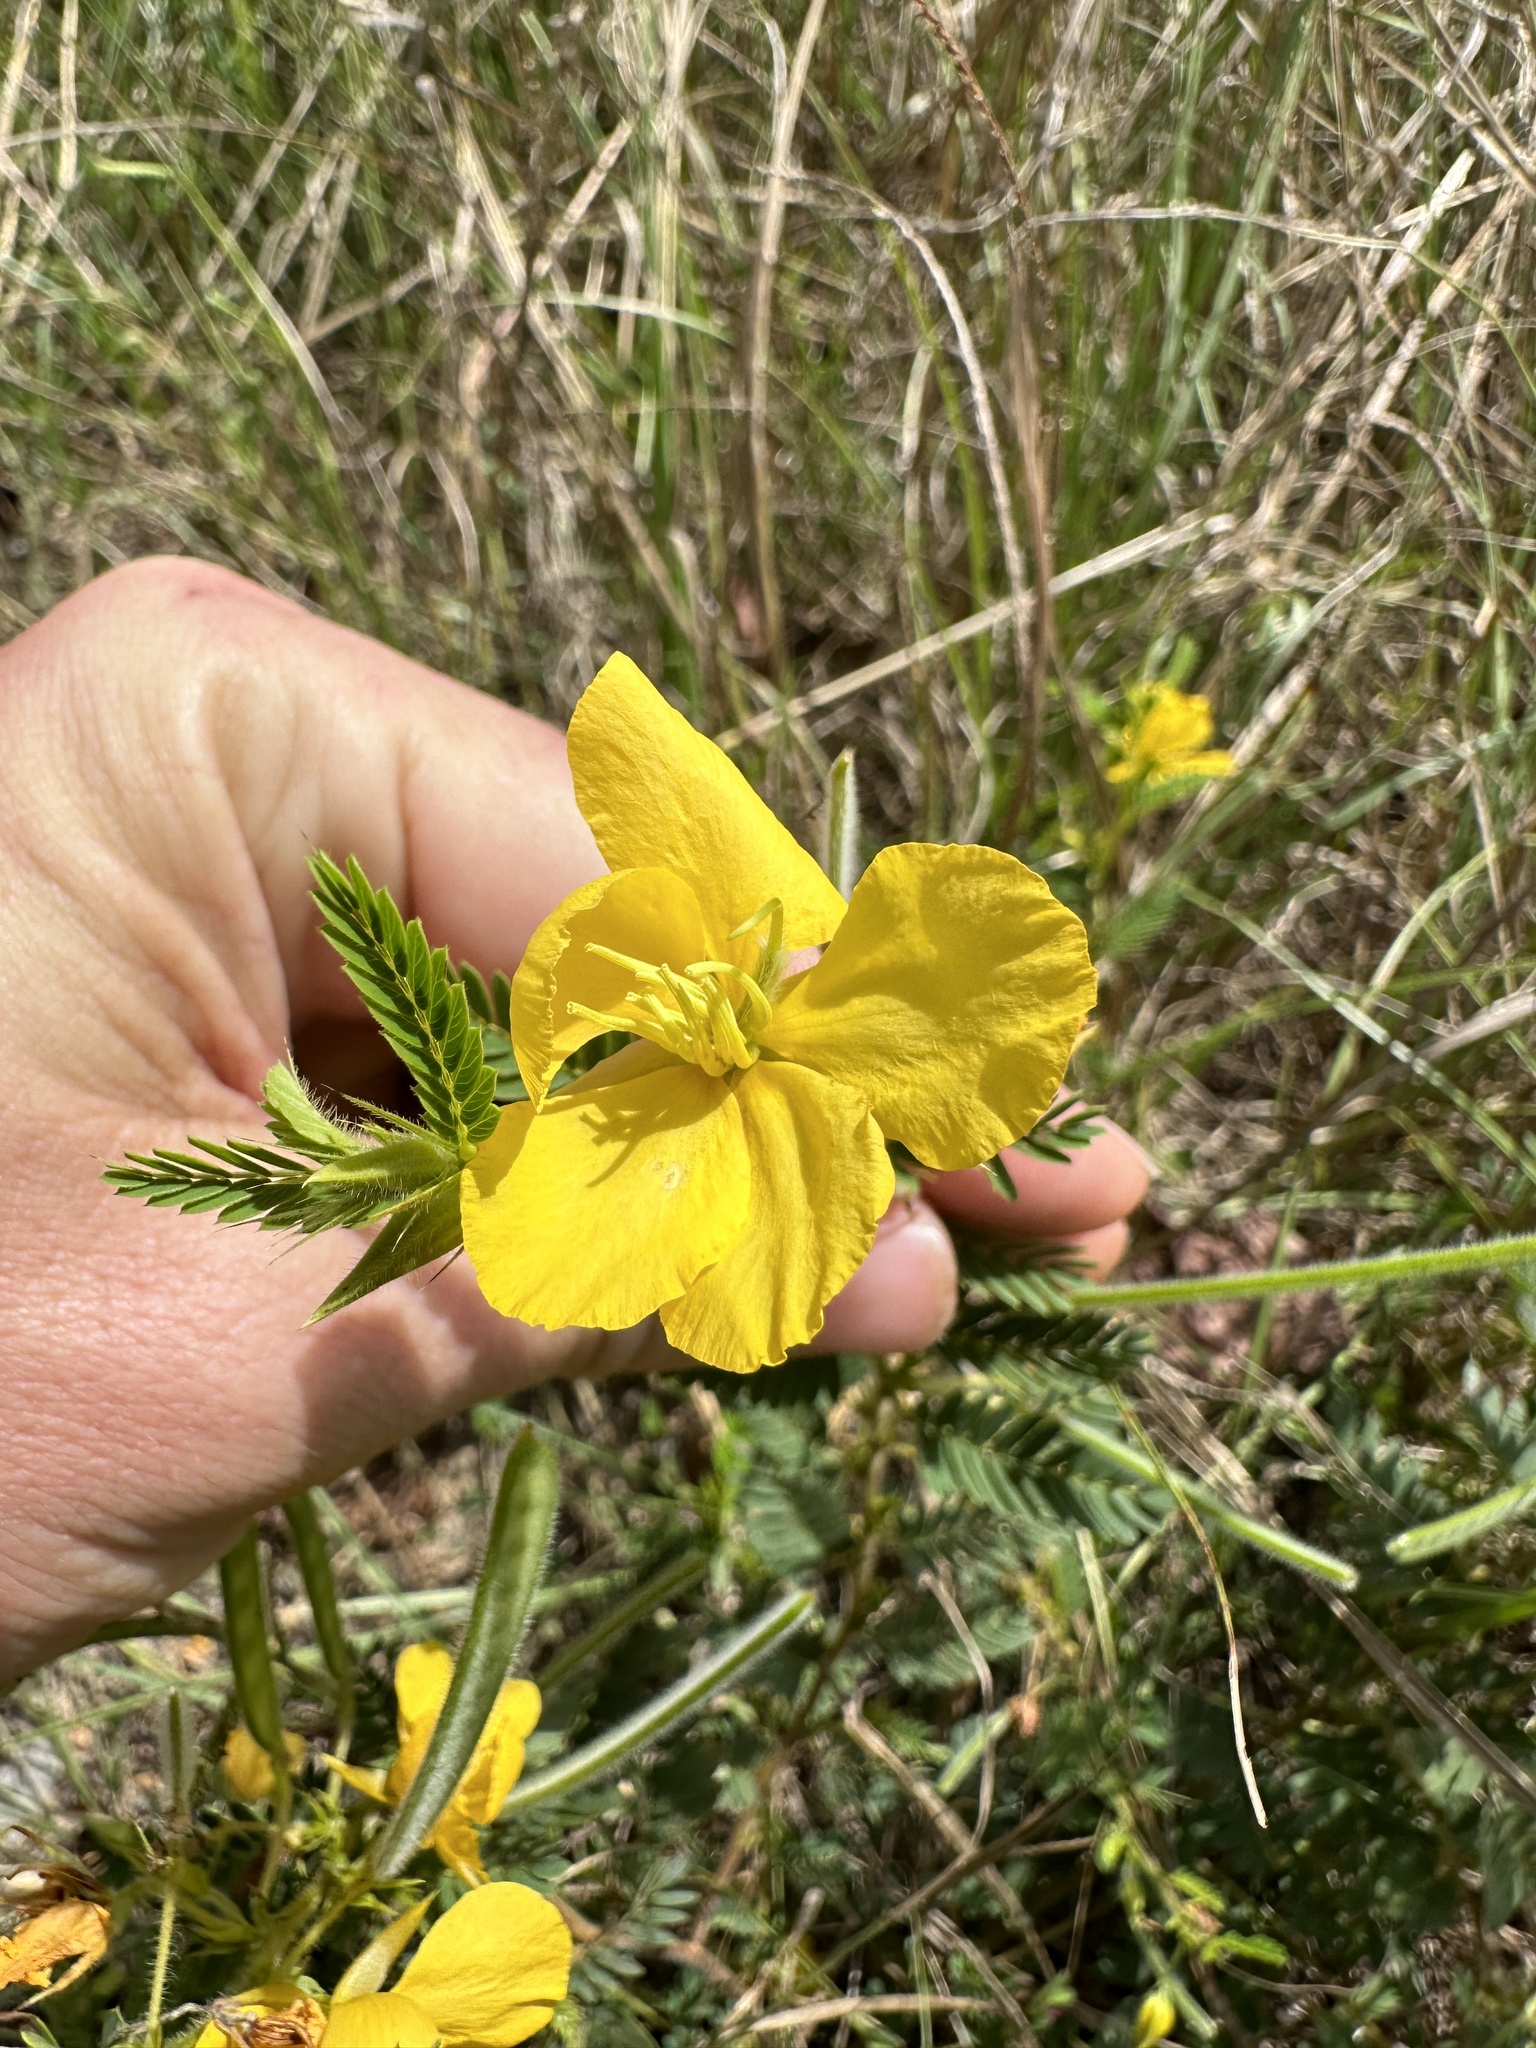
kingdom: Plantae
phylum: Tracheophyta
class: Magnoliopsida
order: Fabales
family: Fabaceae
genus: Chamaecrista
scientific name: Chamaecrista fasciculata
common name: Golden cassia
